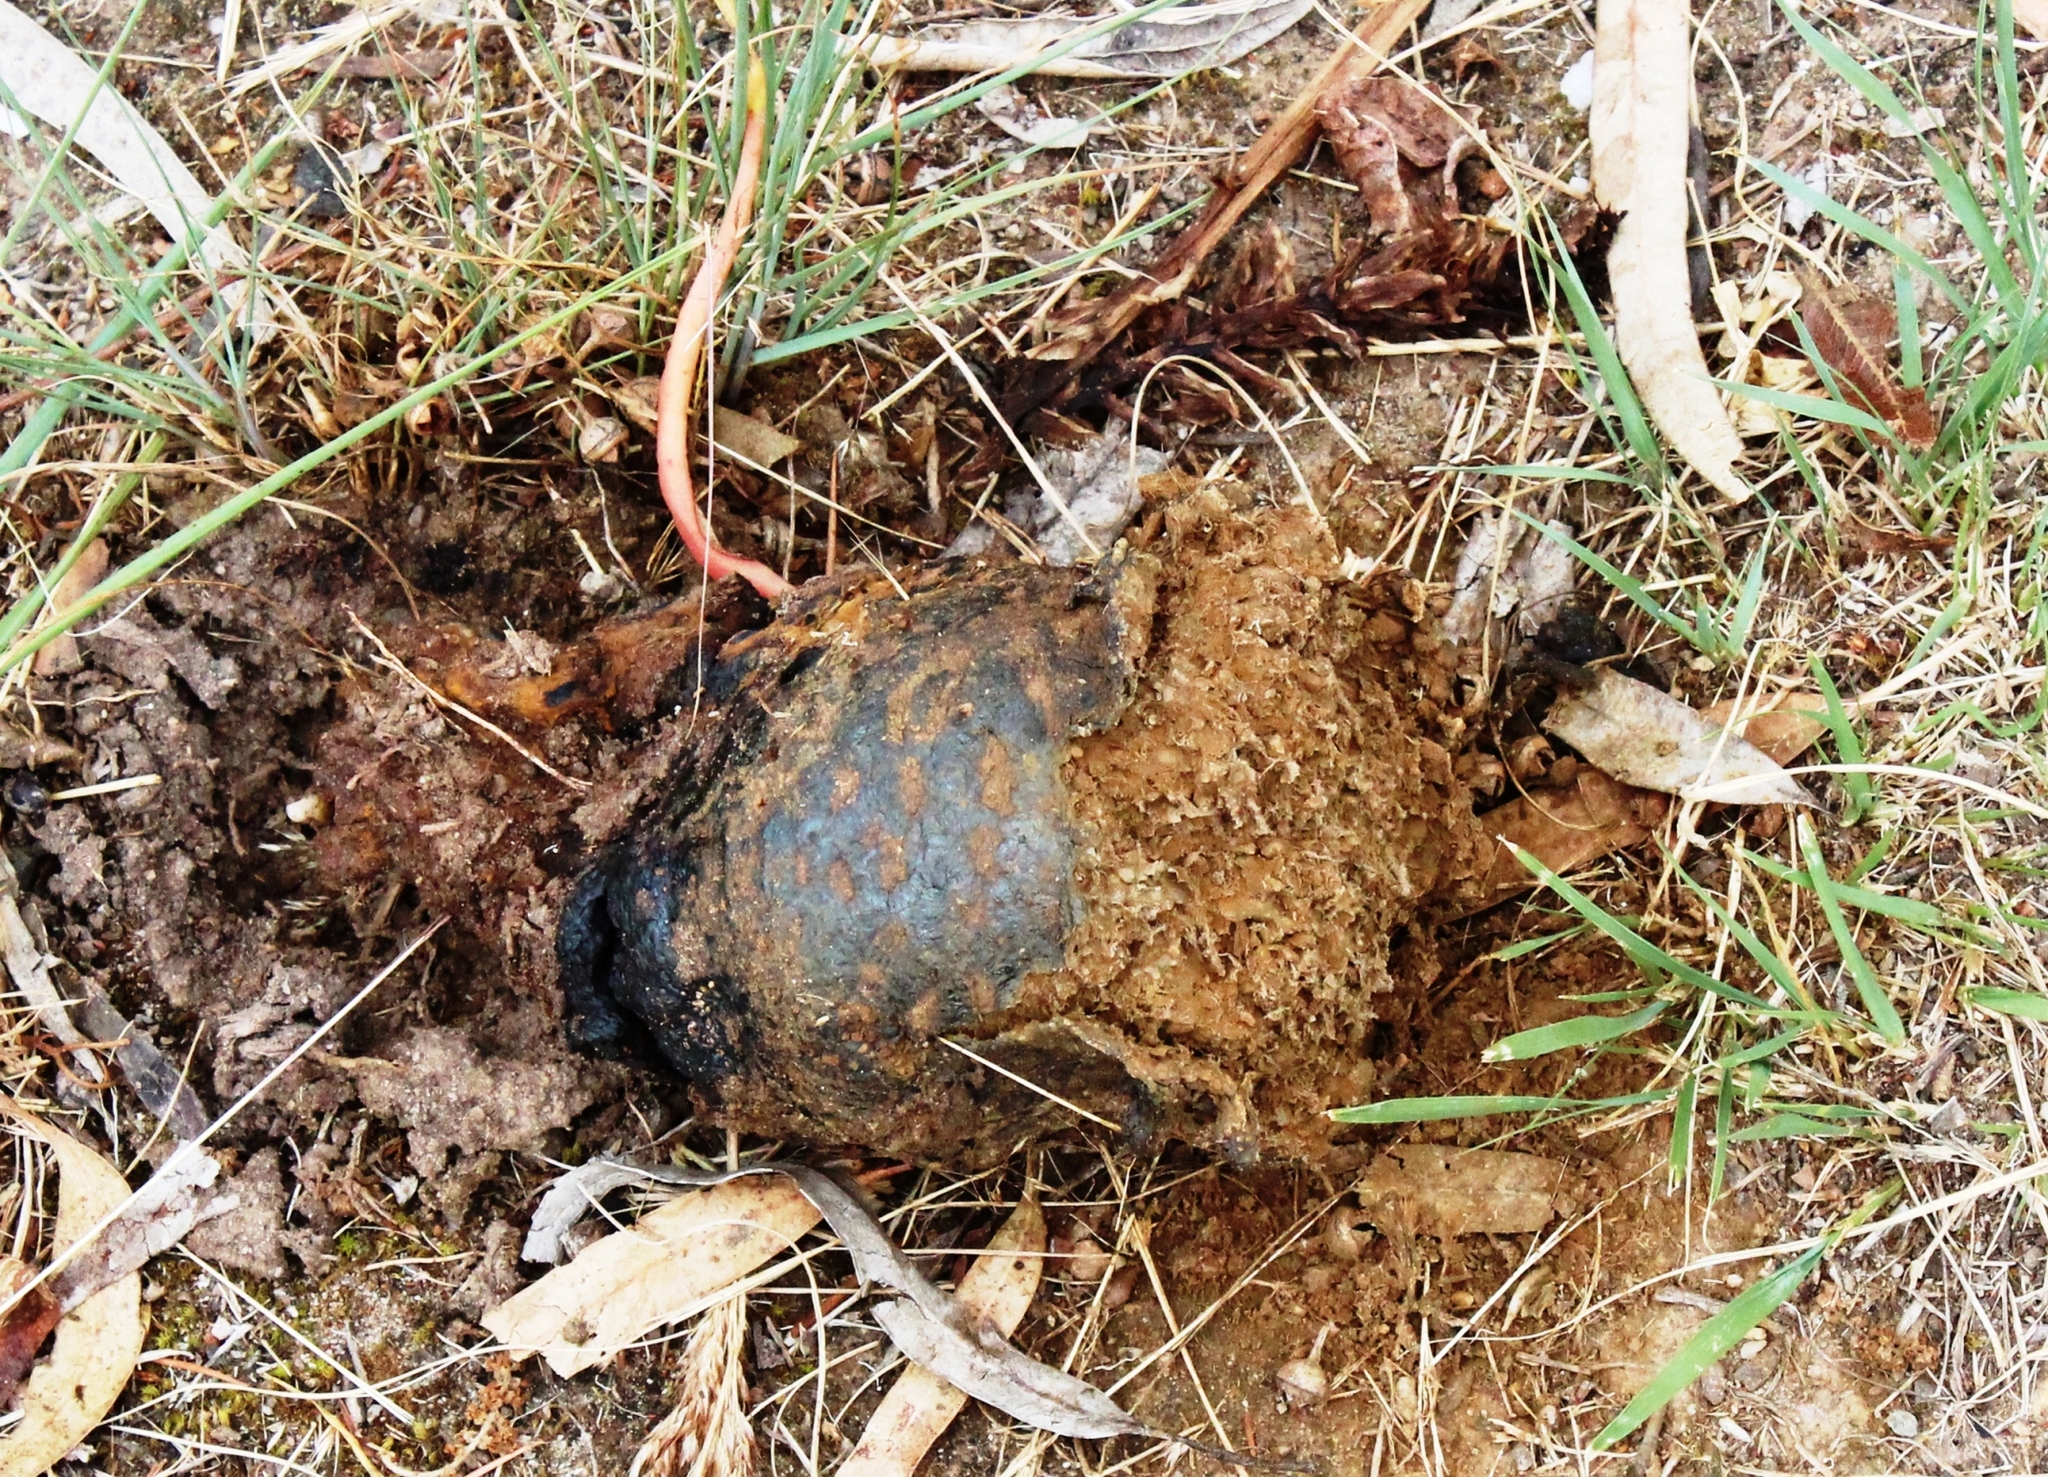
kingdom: Fungi
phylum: Basidiomycota
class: Agaricomycetes
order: Boletales
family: Sclerodermataceae
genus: Pisolithus
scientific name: Pisolithus arhizus
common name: Dyeball
